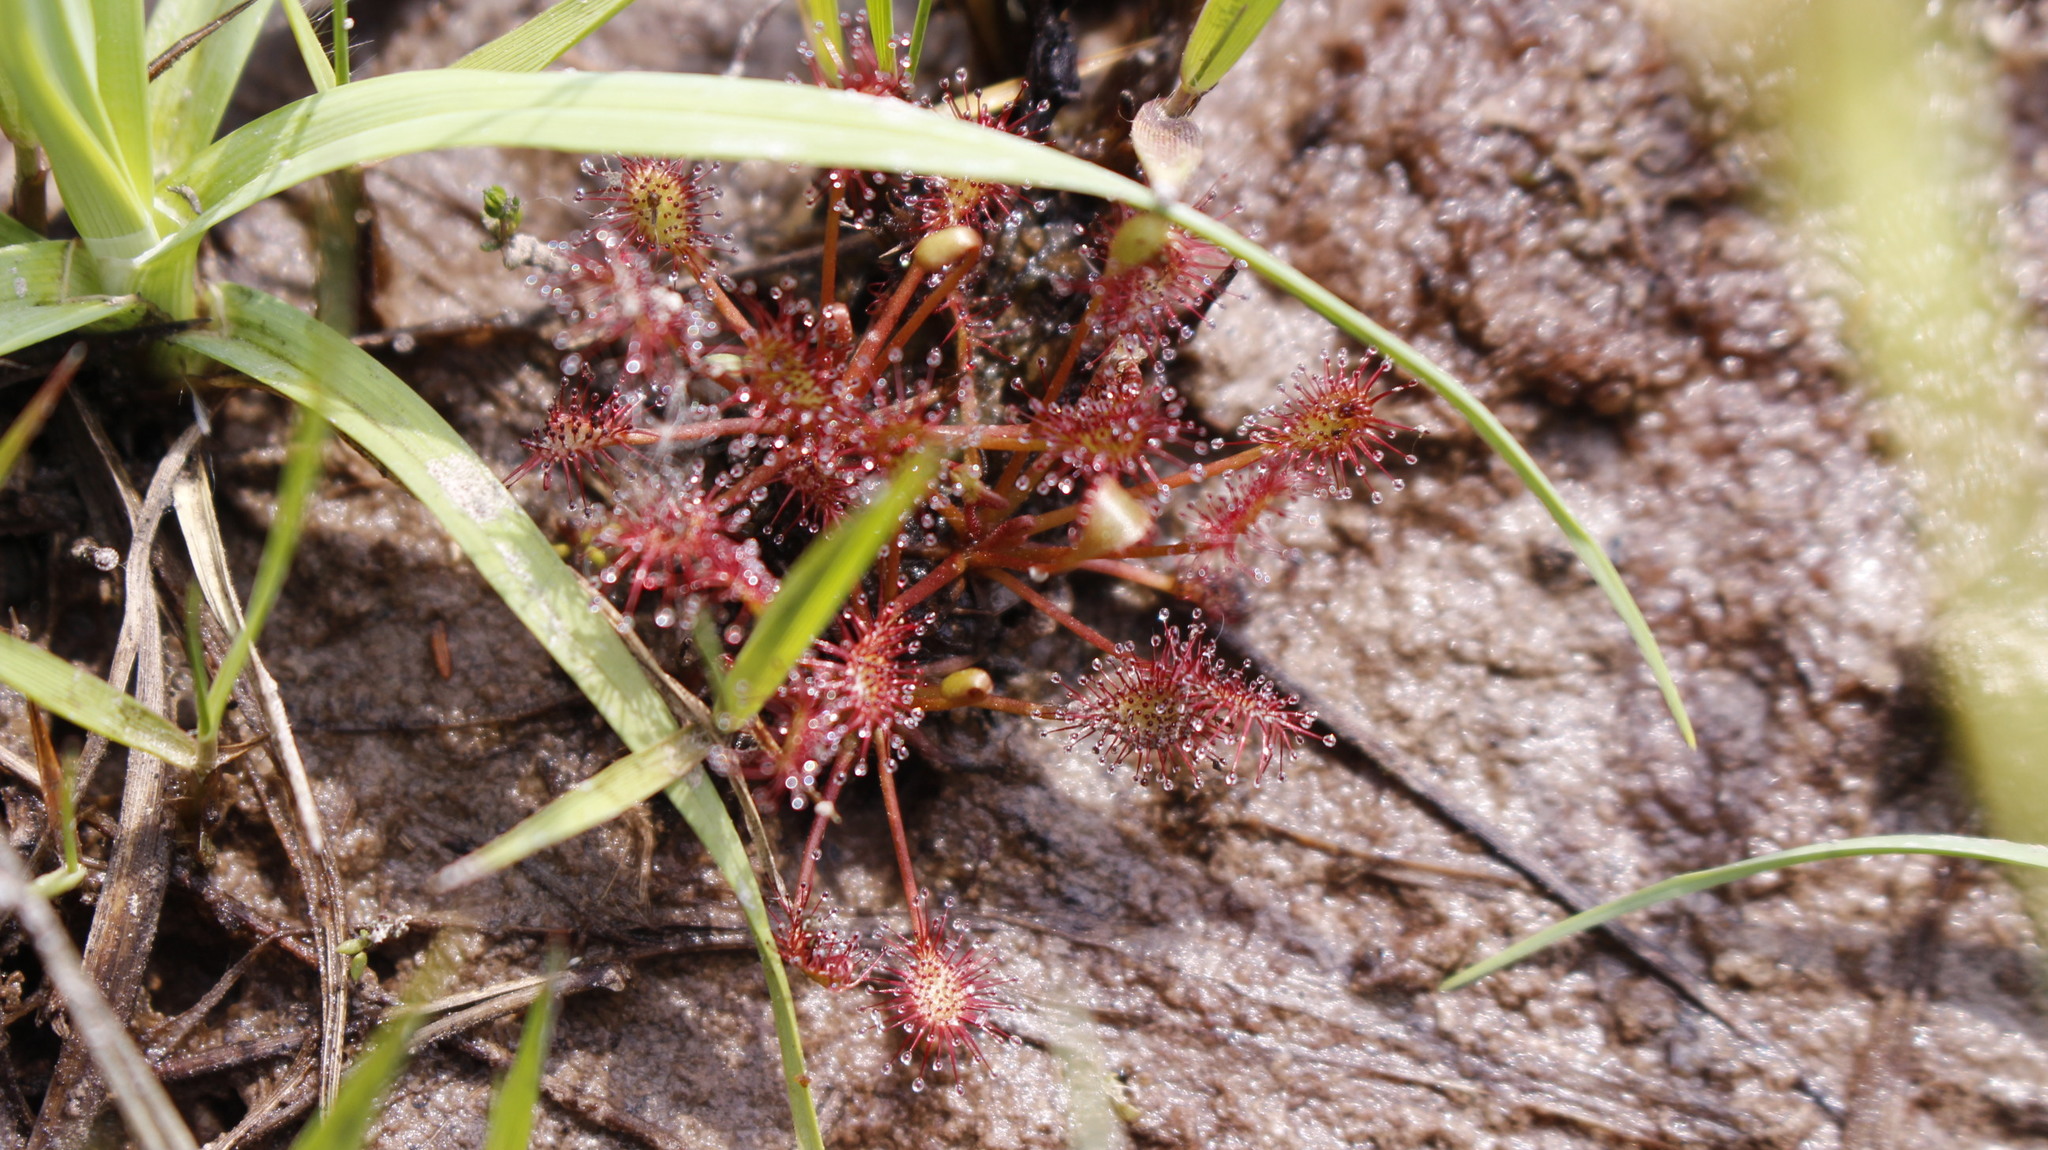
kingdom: Plantae
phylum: Tracheophyta
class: Magnoliopsida
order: Caryophyllales
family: Droseraceae
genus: Drosera
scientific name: Drosera intermedia
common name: Oblong-leaved sundew
